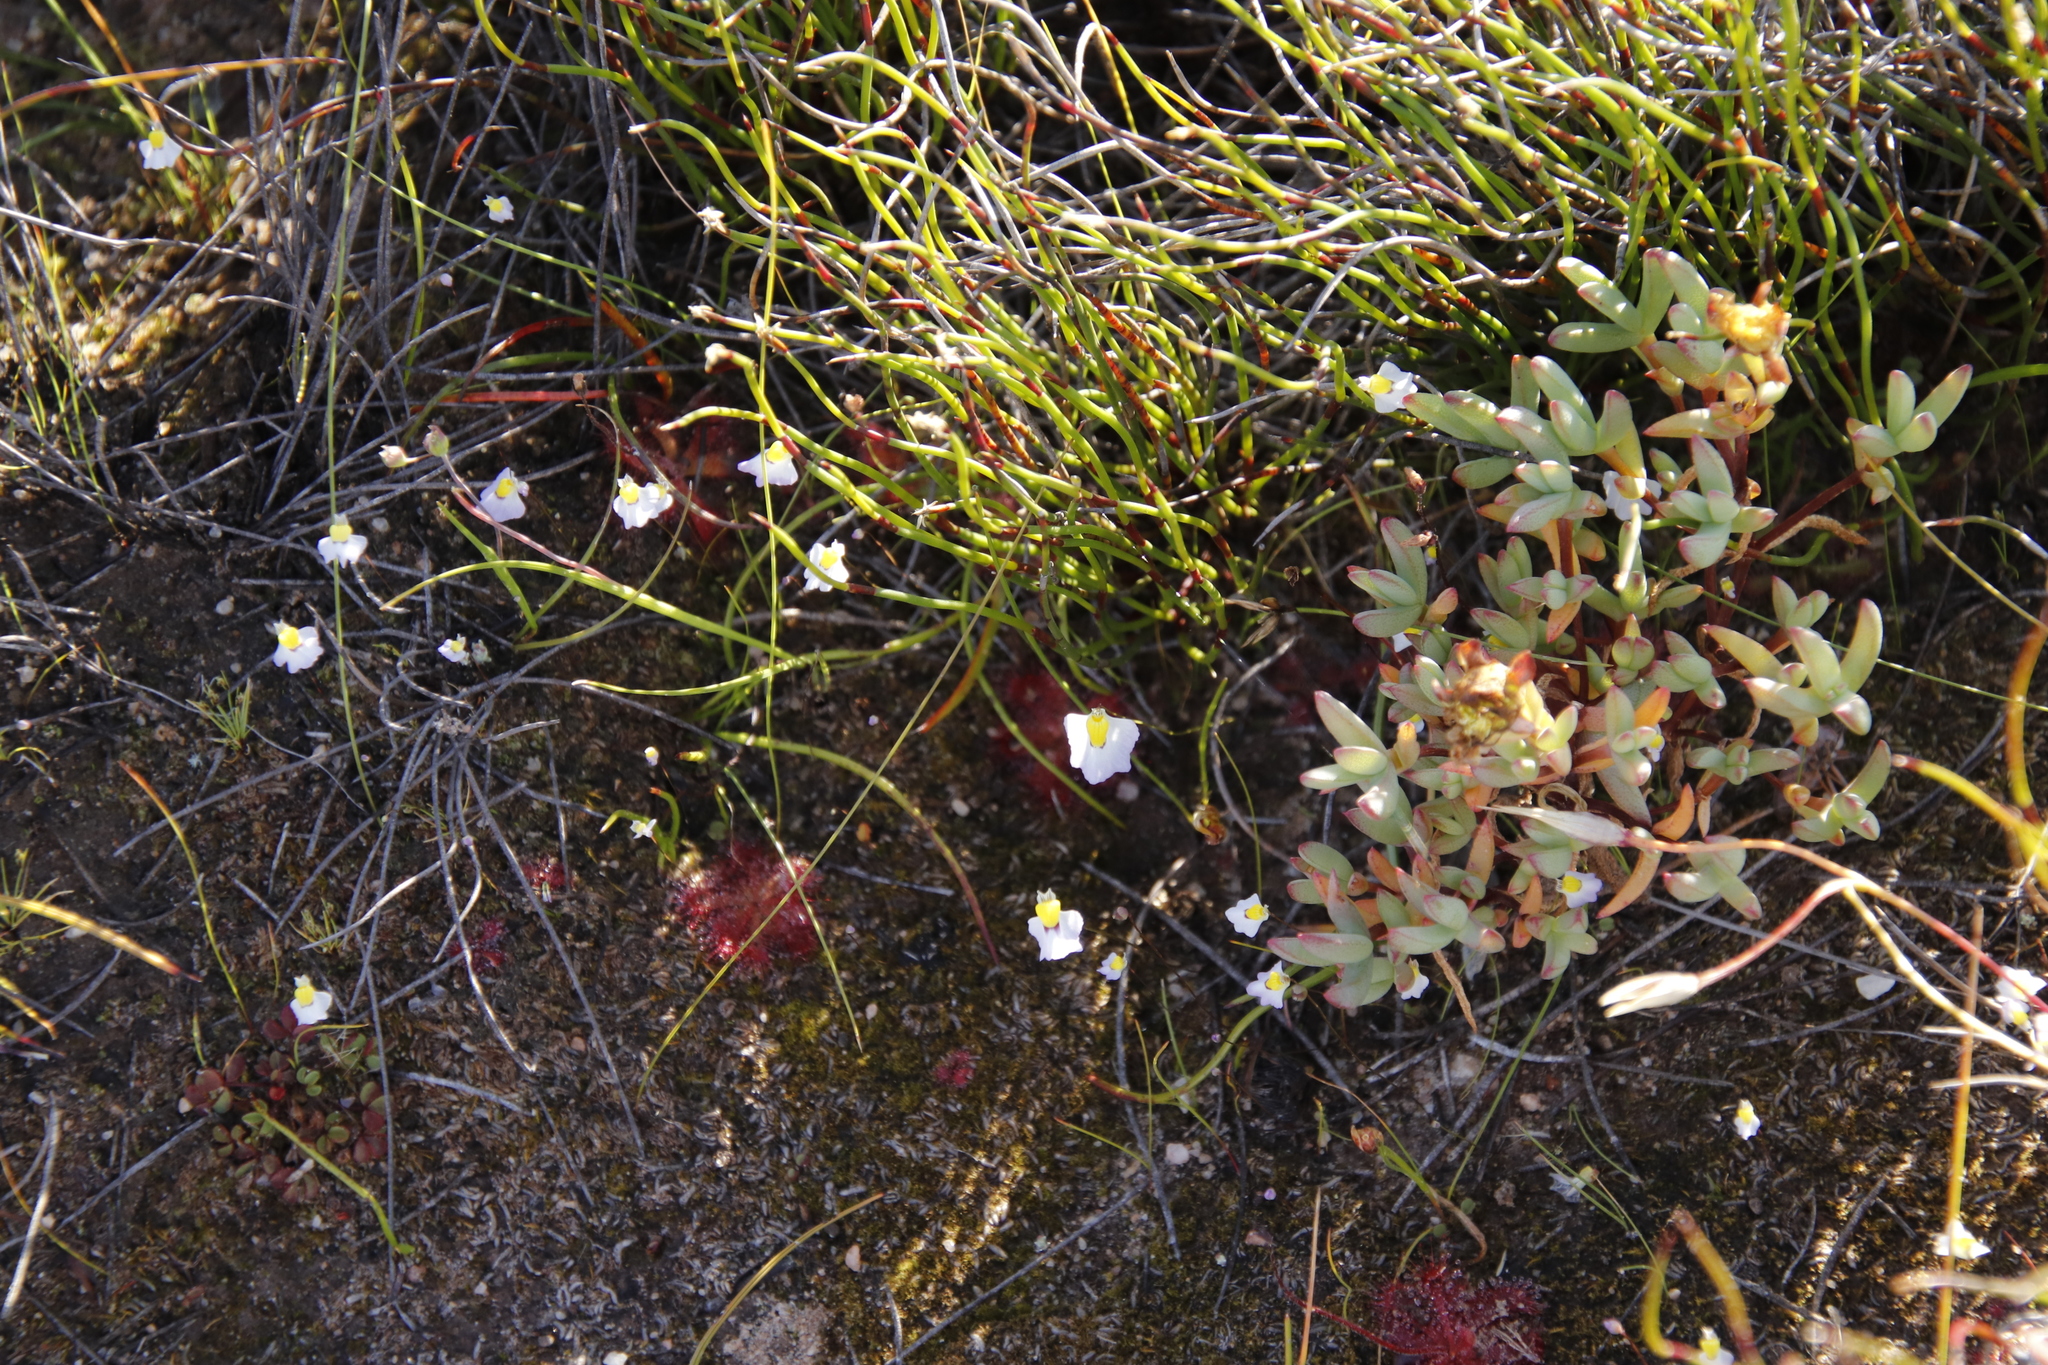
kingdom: Plantae
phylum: Tracheophyta
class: Magnoliopsida
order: Lamiales
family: Lentibulariaceae
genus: Utricularia
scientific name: Utricularia bisquamata
